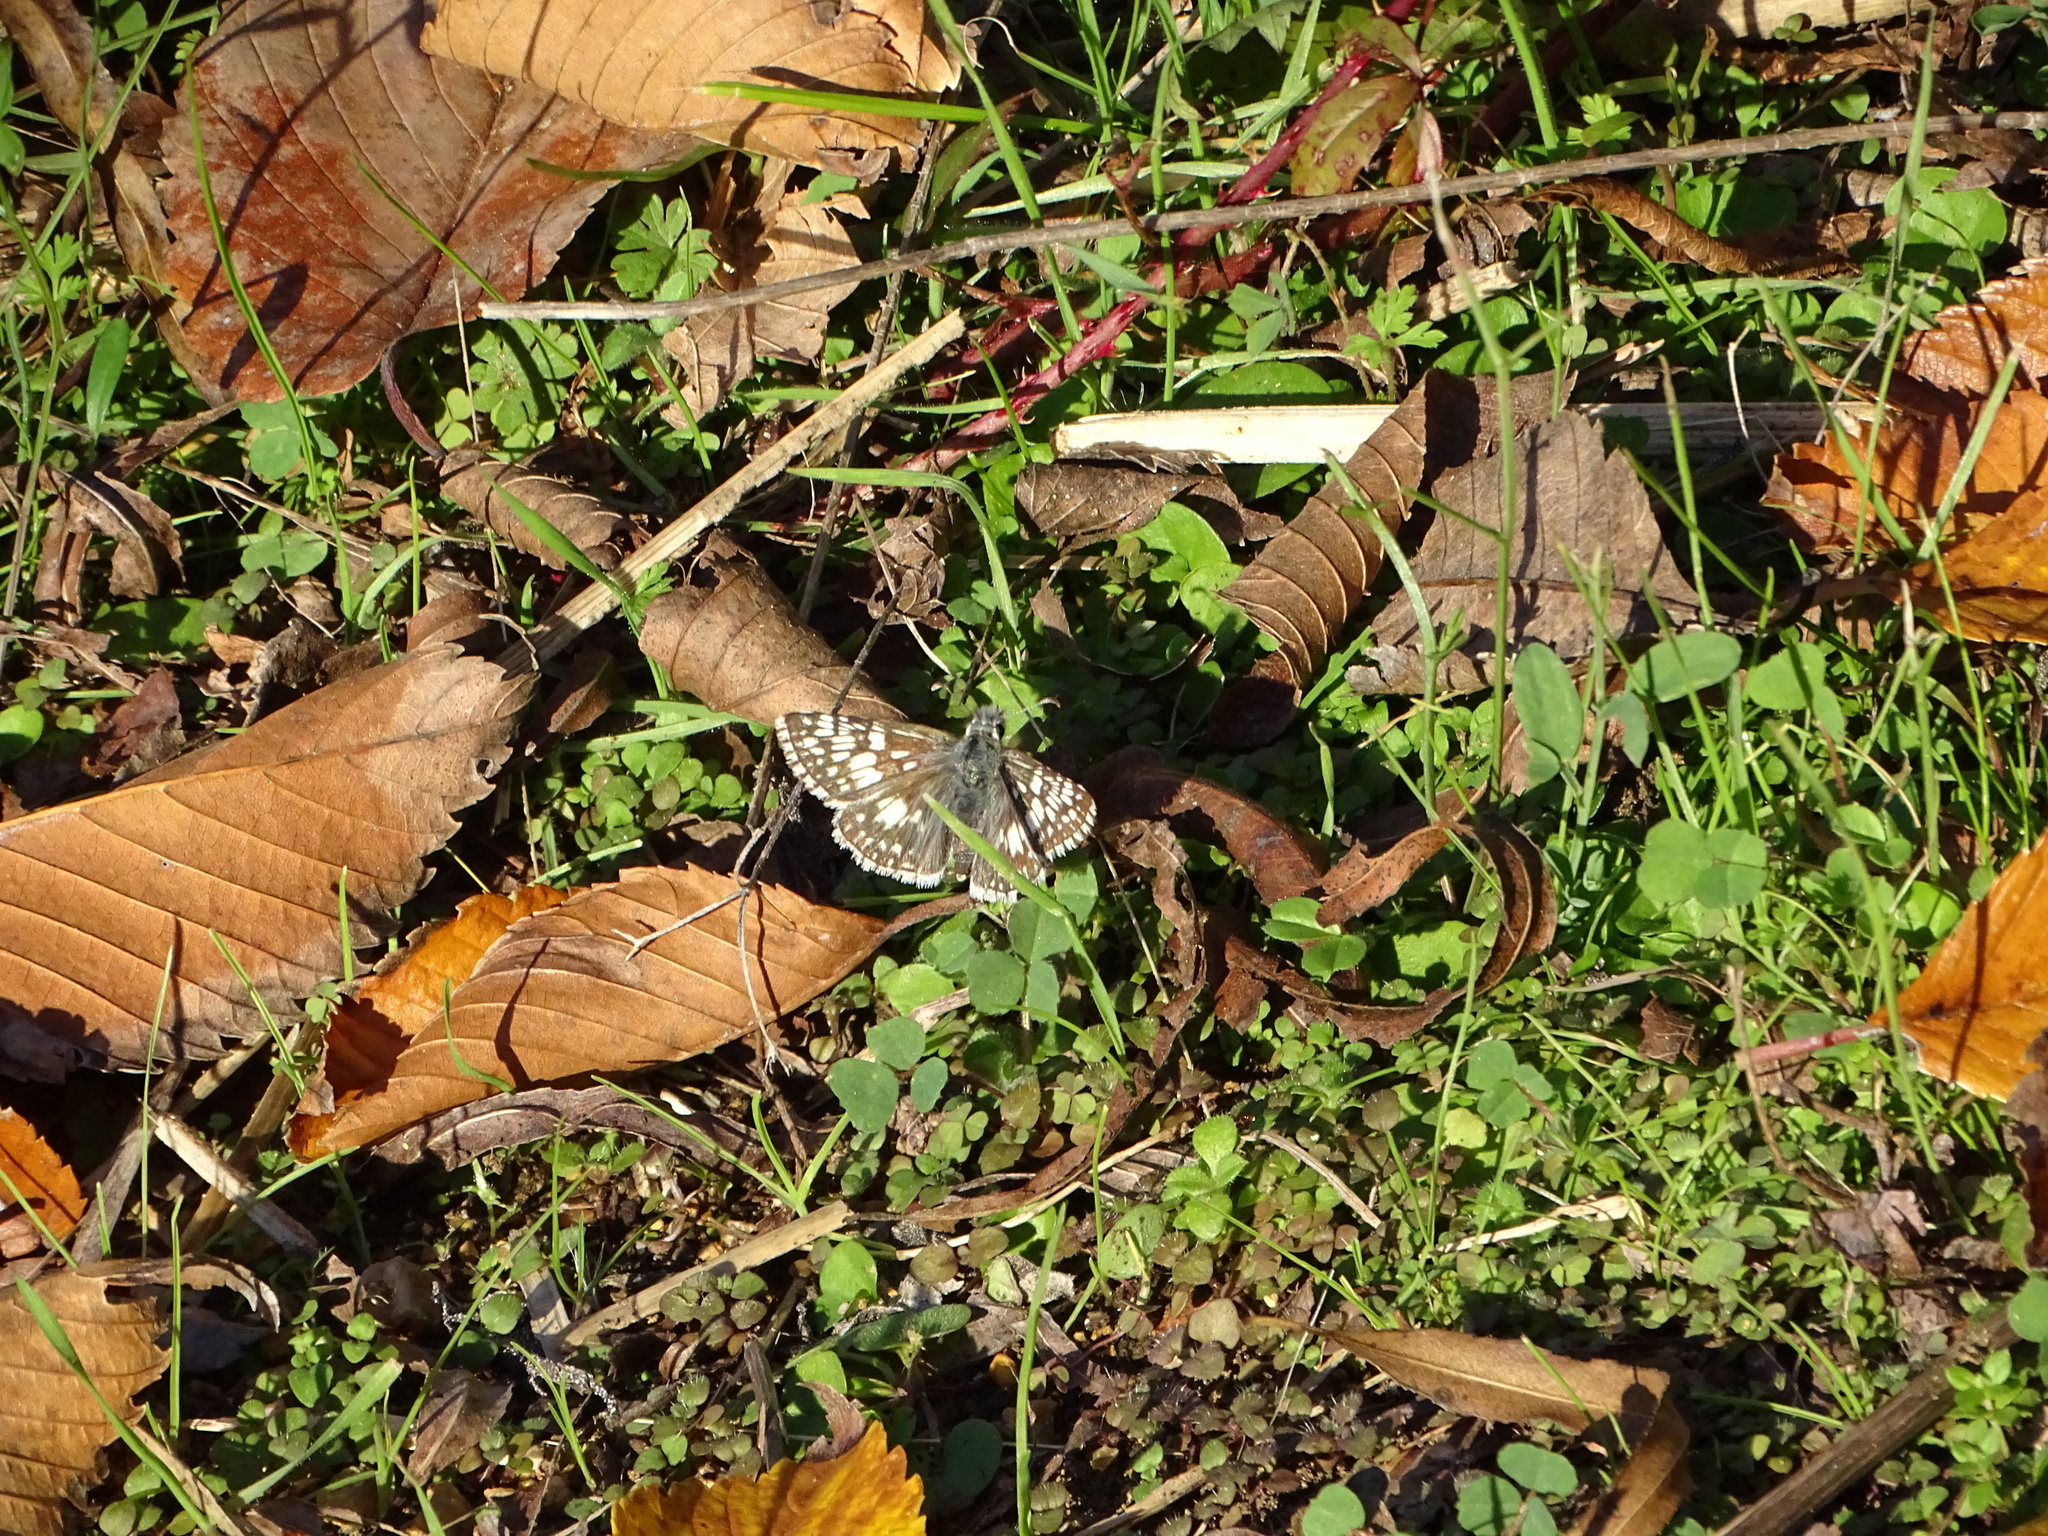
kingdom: Animalia
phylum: Arthropoda
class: Insecta
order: Lepidoptera
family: Hesperiidae
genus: Burnsius
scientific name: Burnsius communis
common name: Common checkered-skipper
